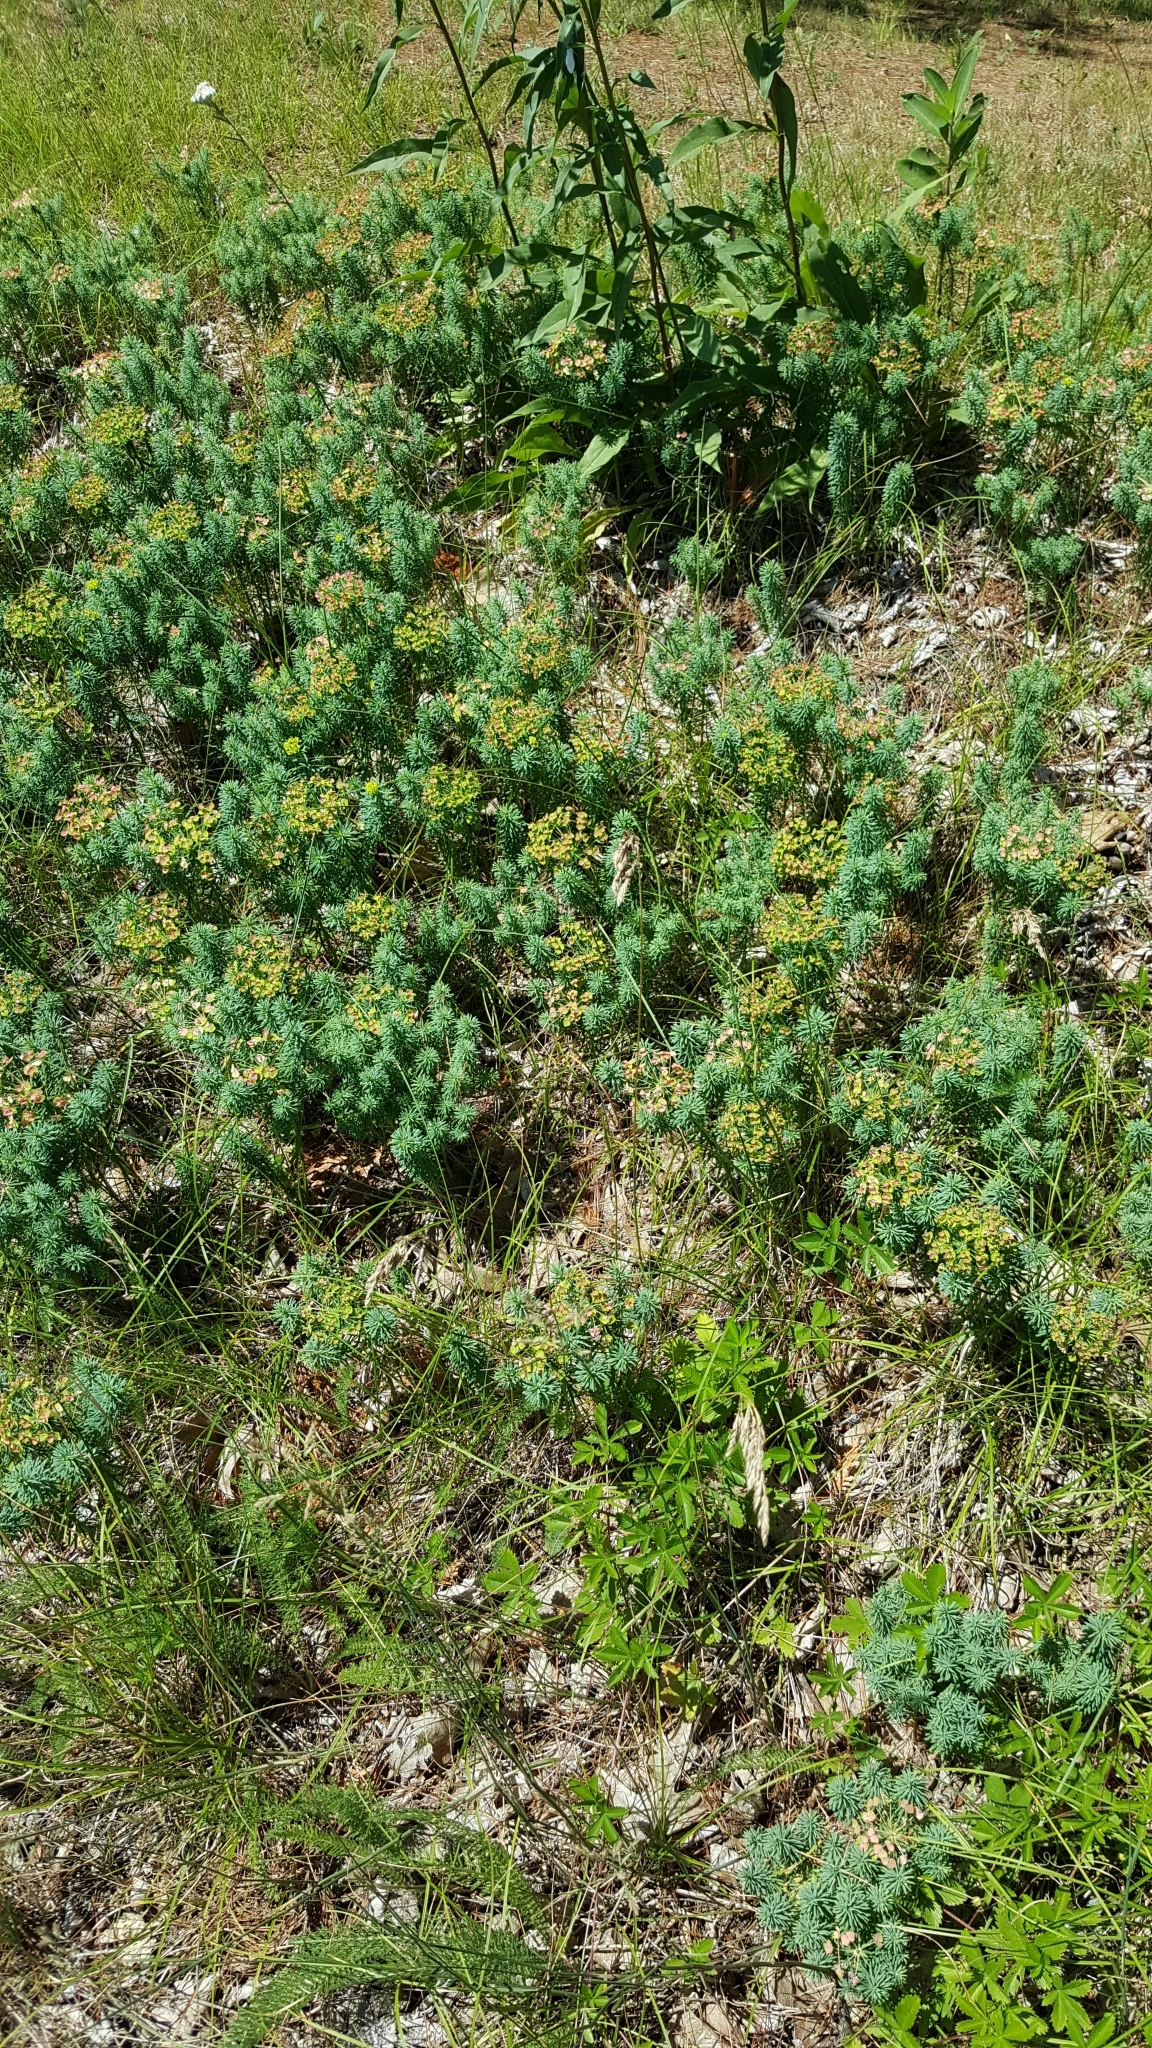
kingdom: Plantae
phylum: Tracheophyta
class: Magnoliopsida
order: Malpighiales
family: Euphorbiaceae
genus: Euphorbia
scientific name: Euphorbia cyparissias
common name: Cypress spurge
